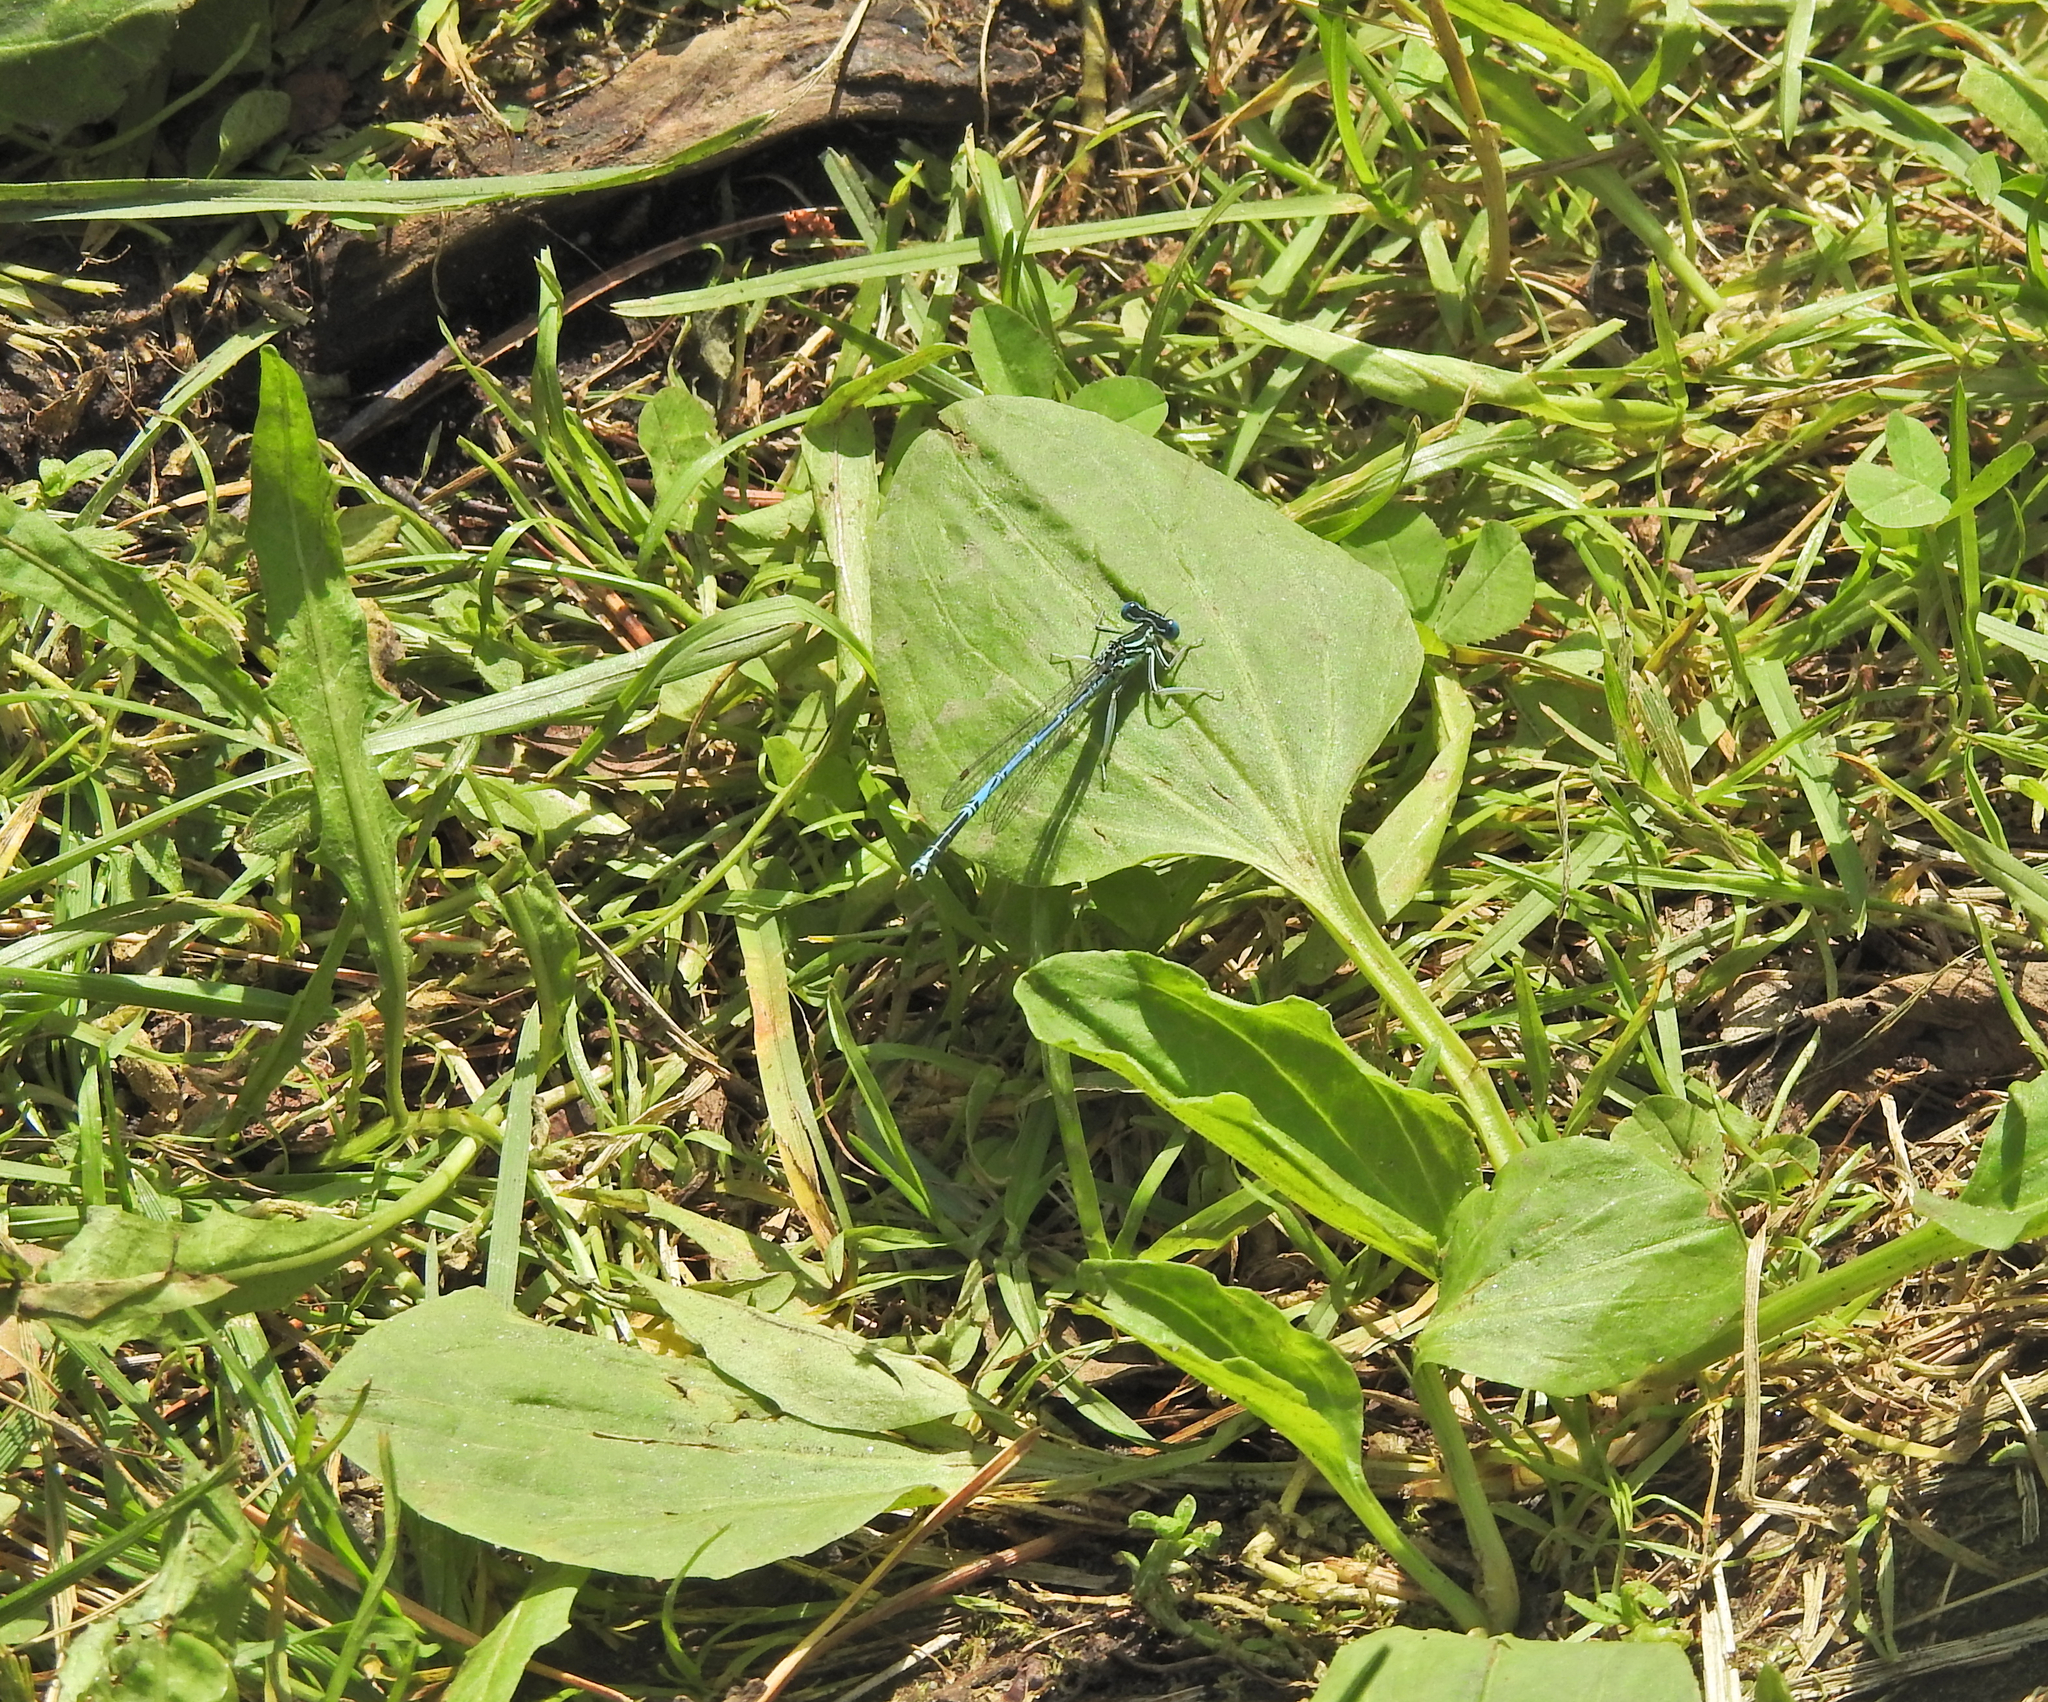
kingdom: Animalia
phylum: Arthropoda
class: Insecta
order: Odonata
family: Platycnemididae
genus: Platycnemis
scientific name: Platycnemis pennipes
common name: White-legged damselfly
